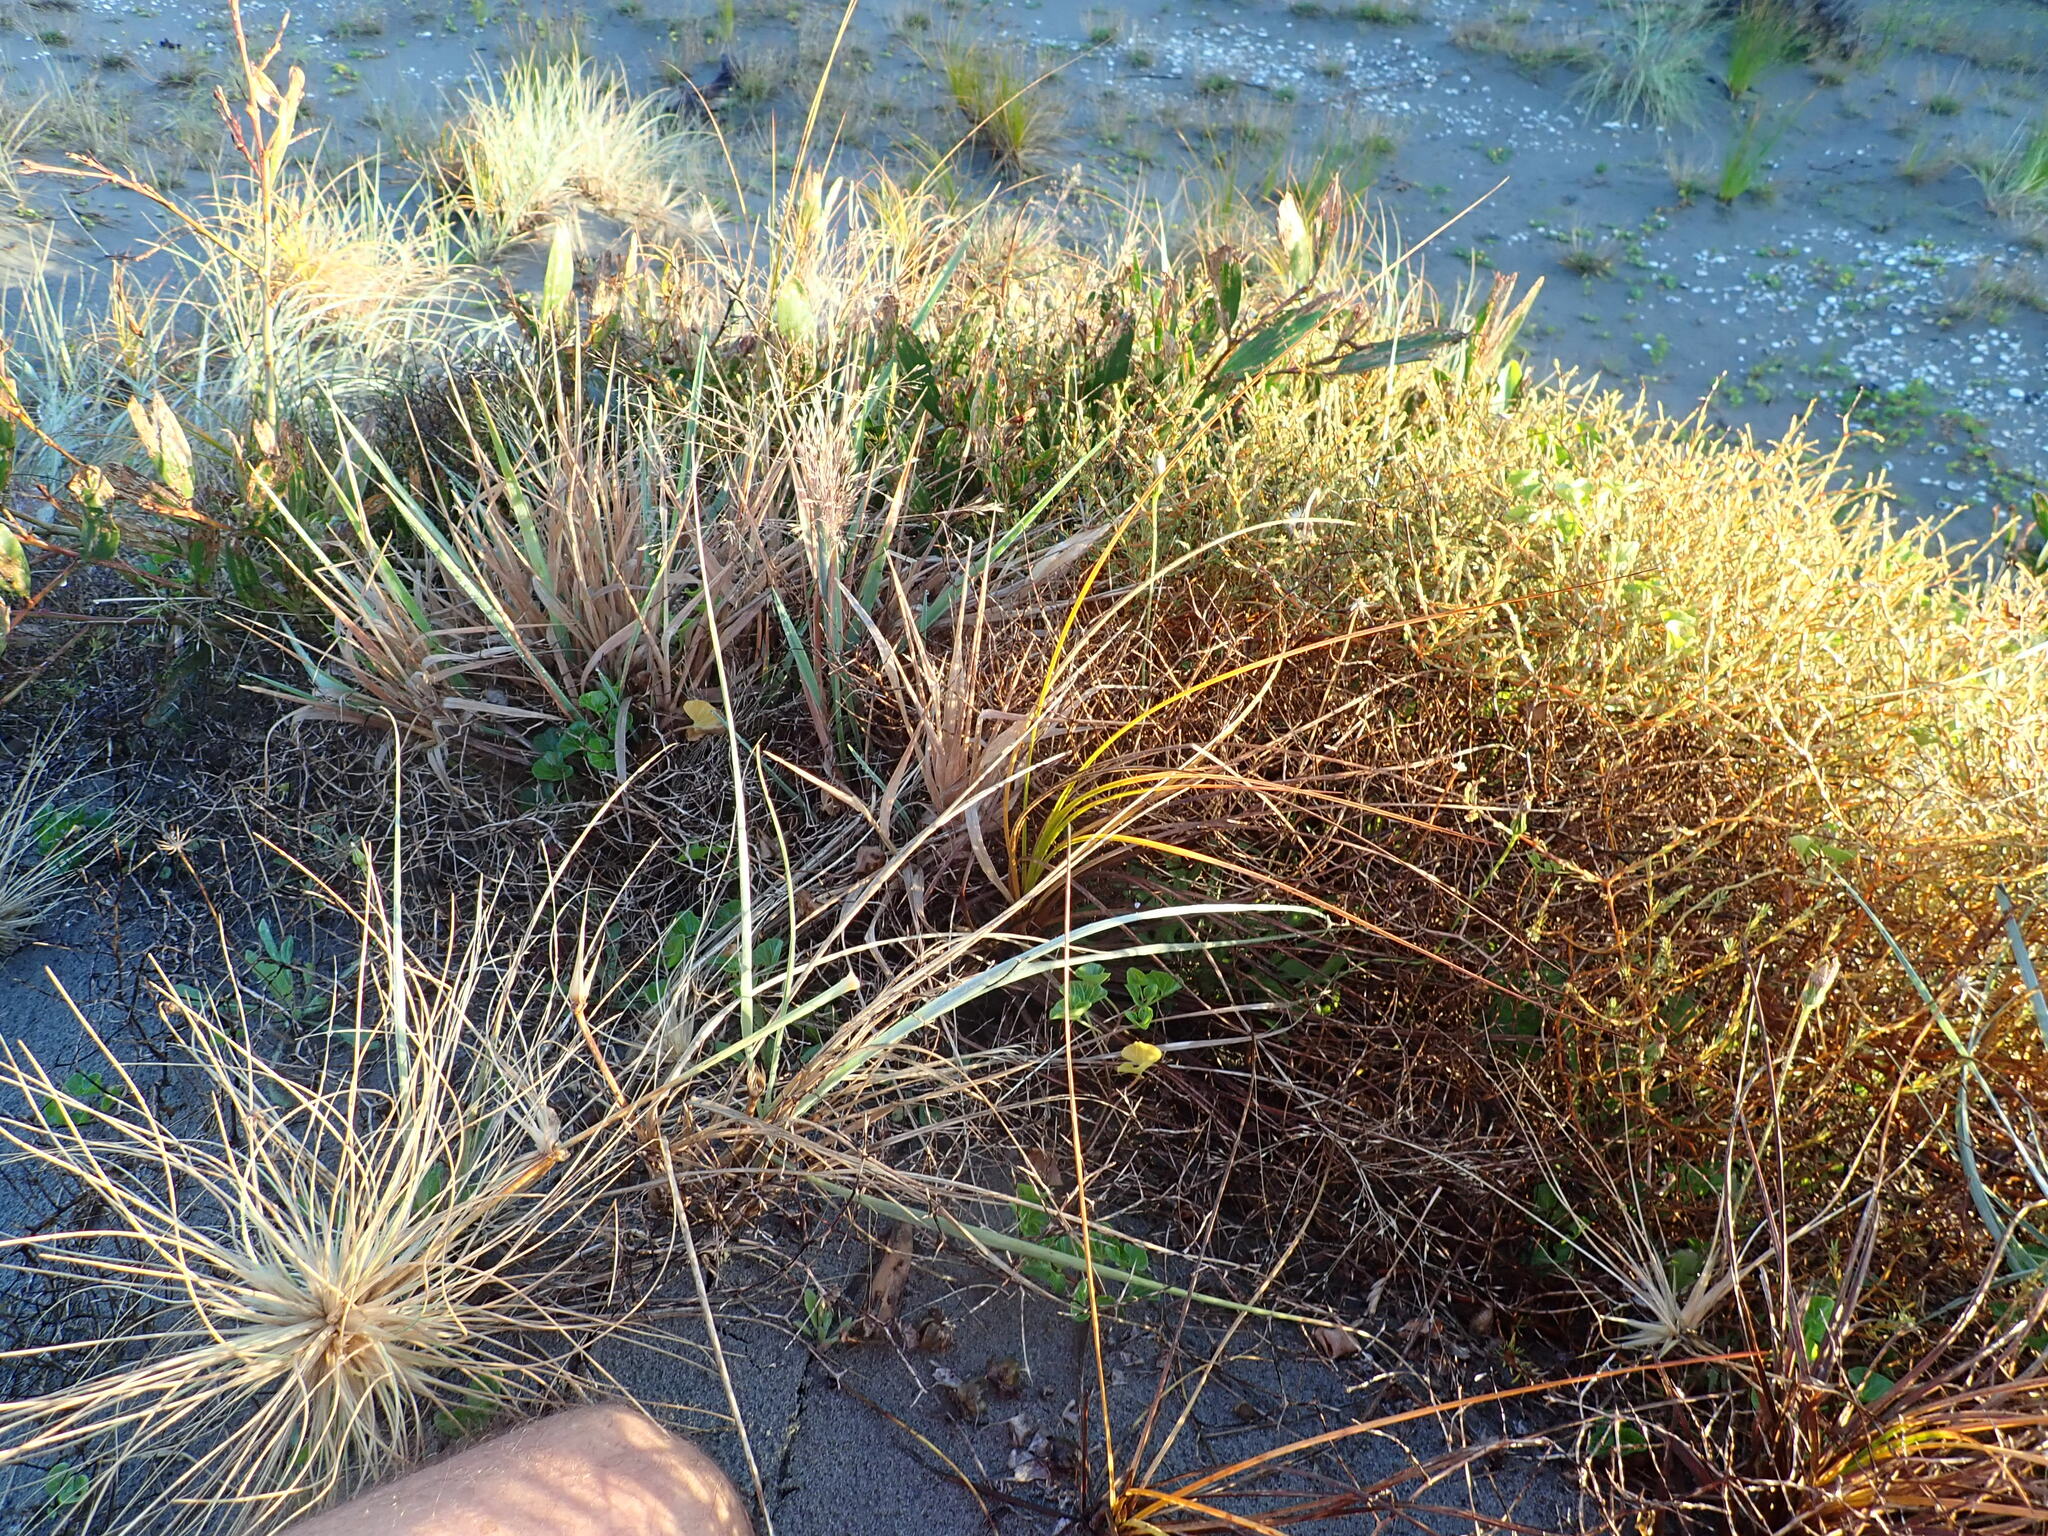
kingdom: Plantae
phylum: Tracheophyta
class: Magnoliopsida
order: Gentianales
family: Rubiaceae
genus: Coprosma
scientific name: Coprosma acerosa
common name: Sand coprosma
